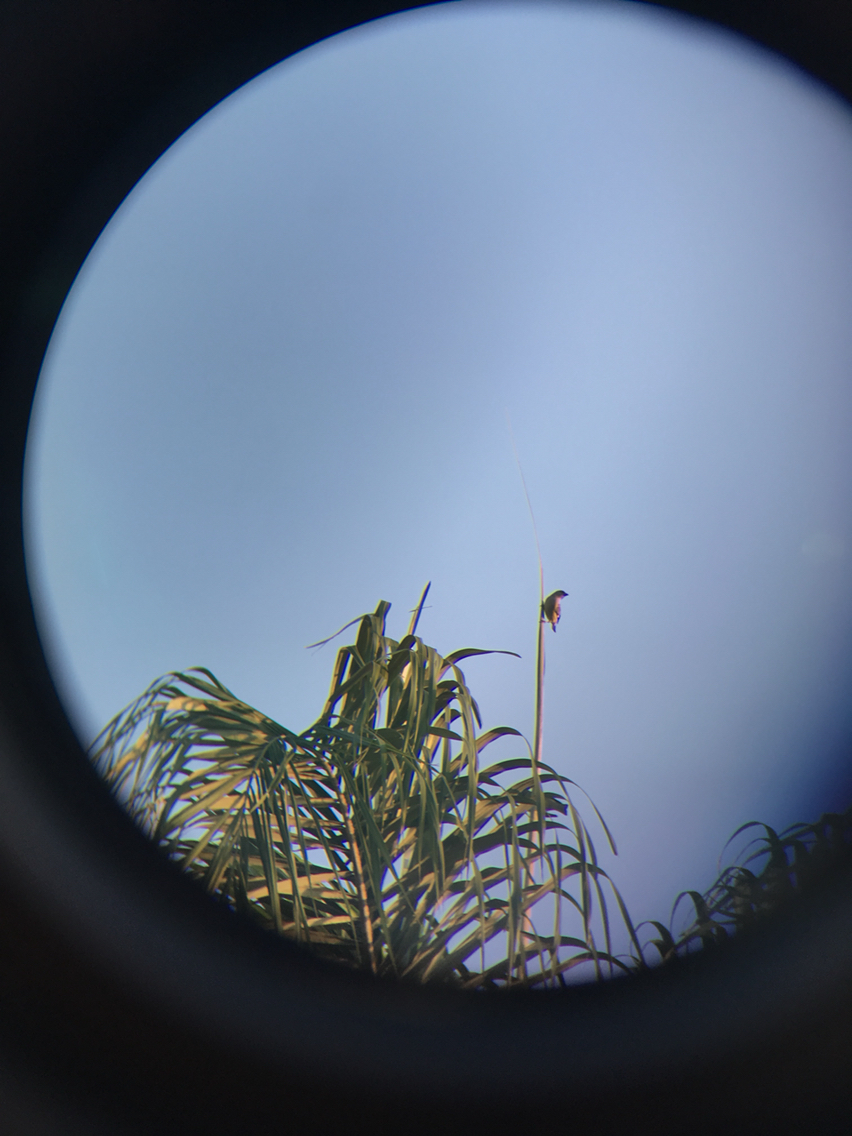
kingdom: Animalia
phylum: Chordata
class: Aves
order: Passeriformes
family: Thraupidae
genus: Thraupis
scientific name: Thraupis abbas
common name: Yellow-winged tanager
